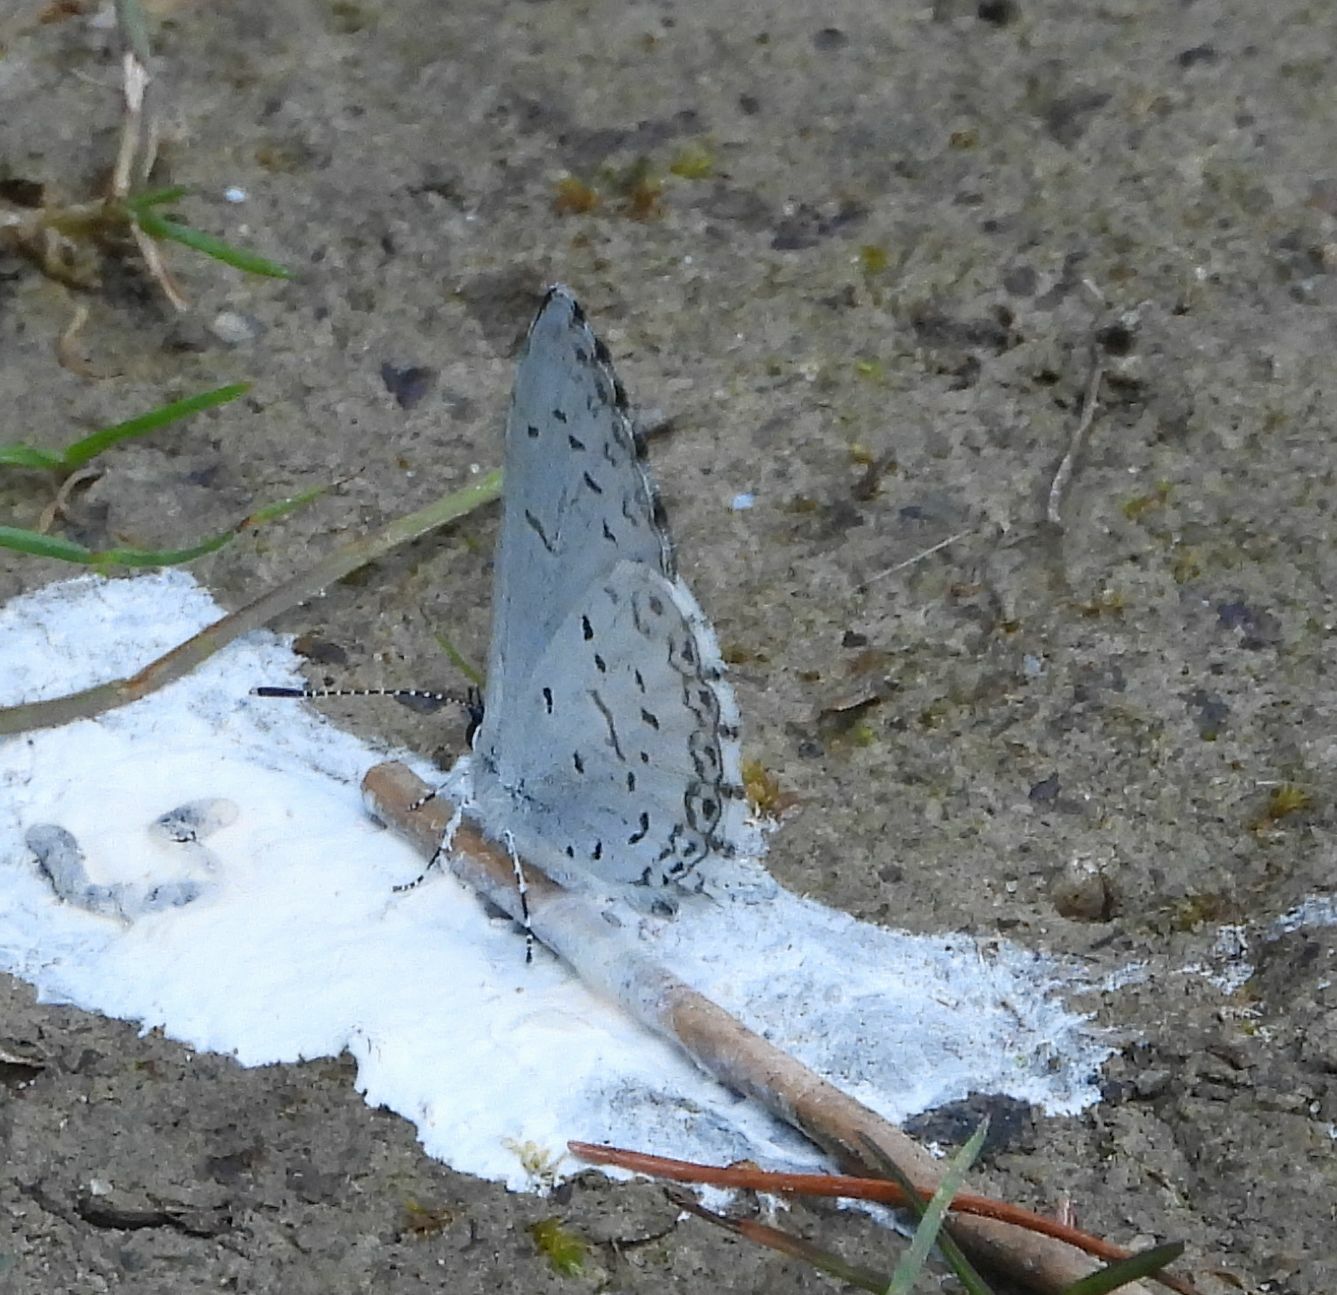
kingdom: Animalia
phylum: Arthropoda
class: Insecta
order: Lepidoptera
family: Lycaenidae
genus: Celastrina
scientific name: Celastrina lucia
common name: Lucia azure
